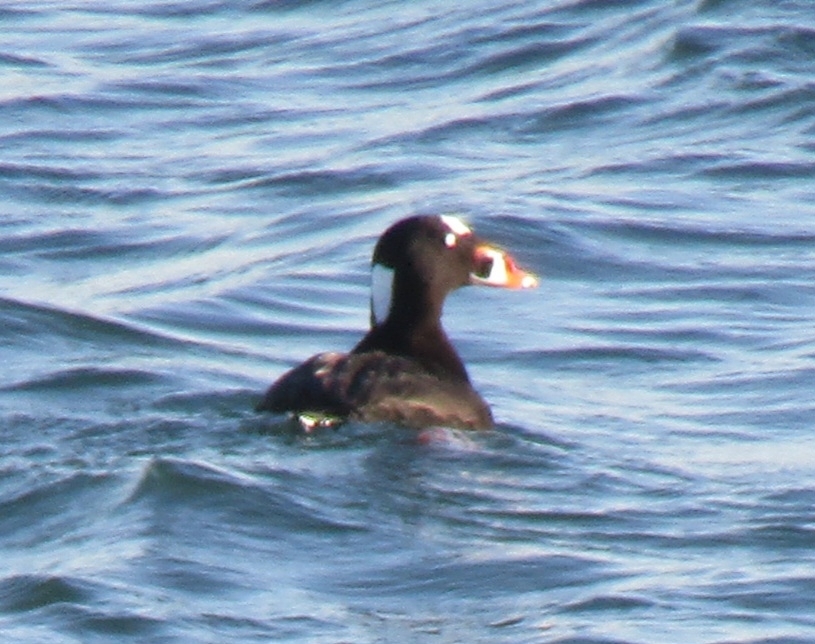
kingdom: Animalia
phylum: Chordata
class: Aves
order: Anseriformes
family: Anatidae
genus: Melanitta
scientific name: Melanitta perspicillata
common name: Surf scoter
